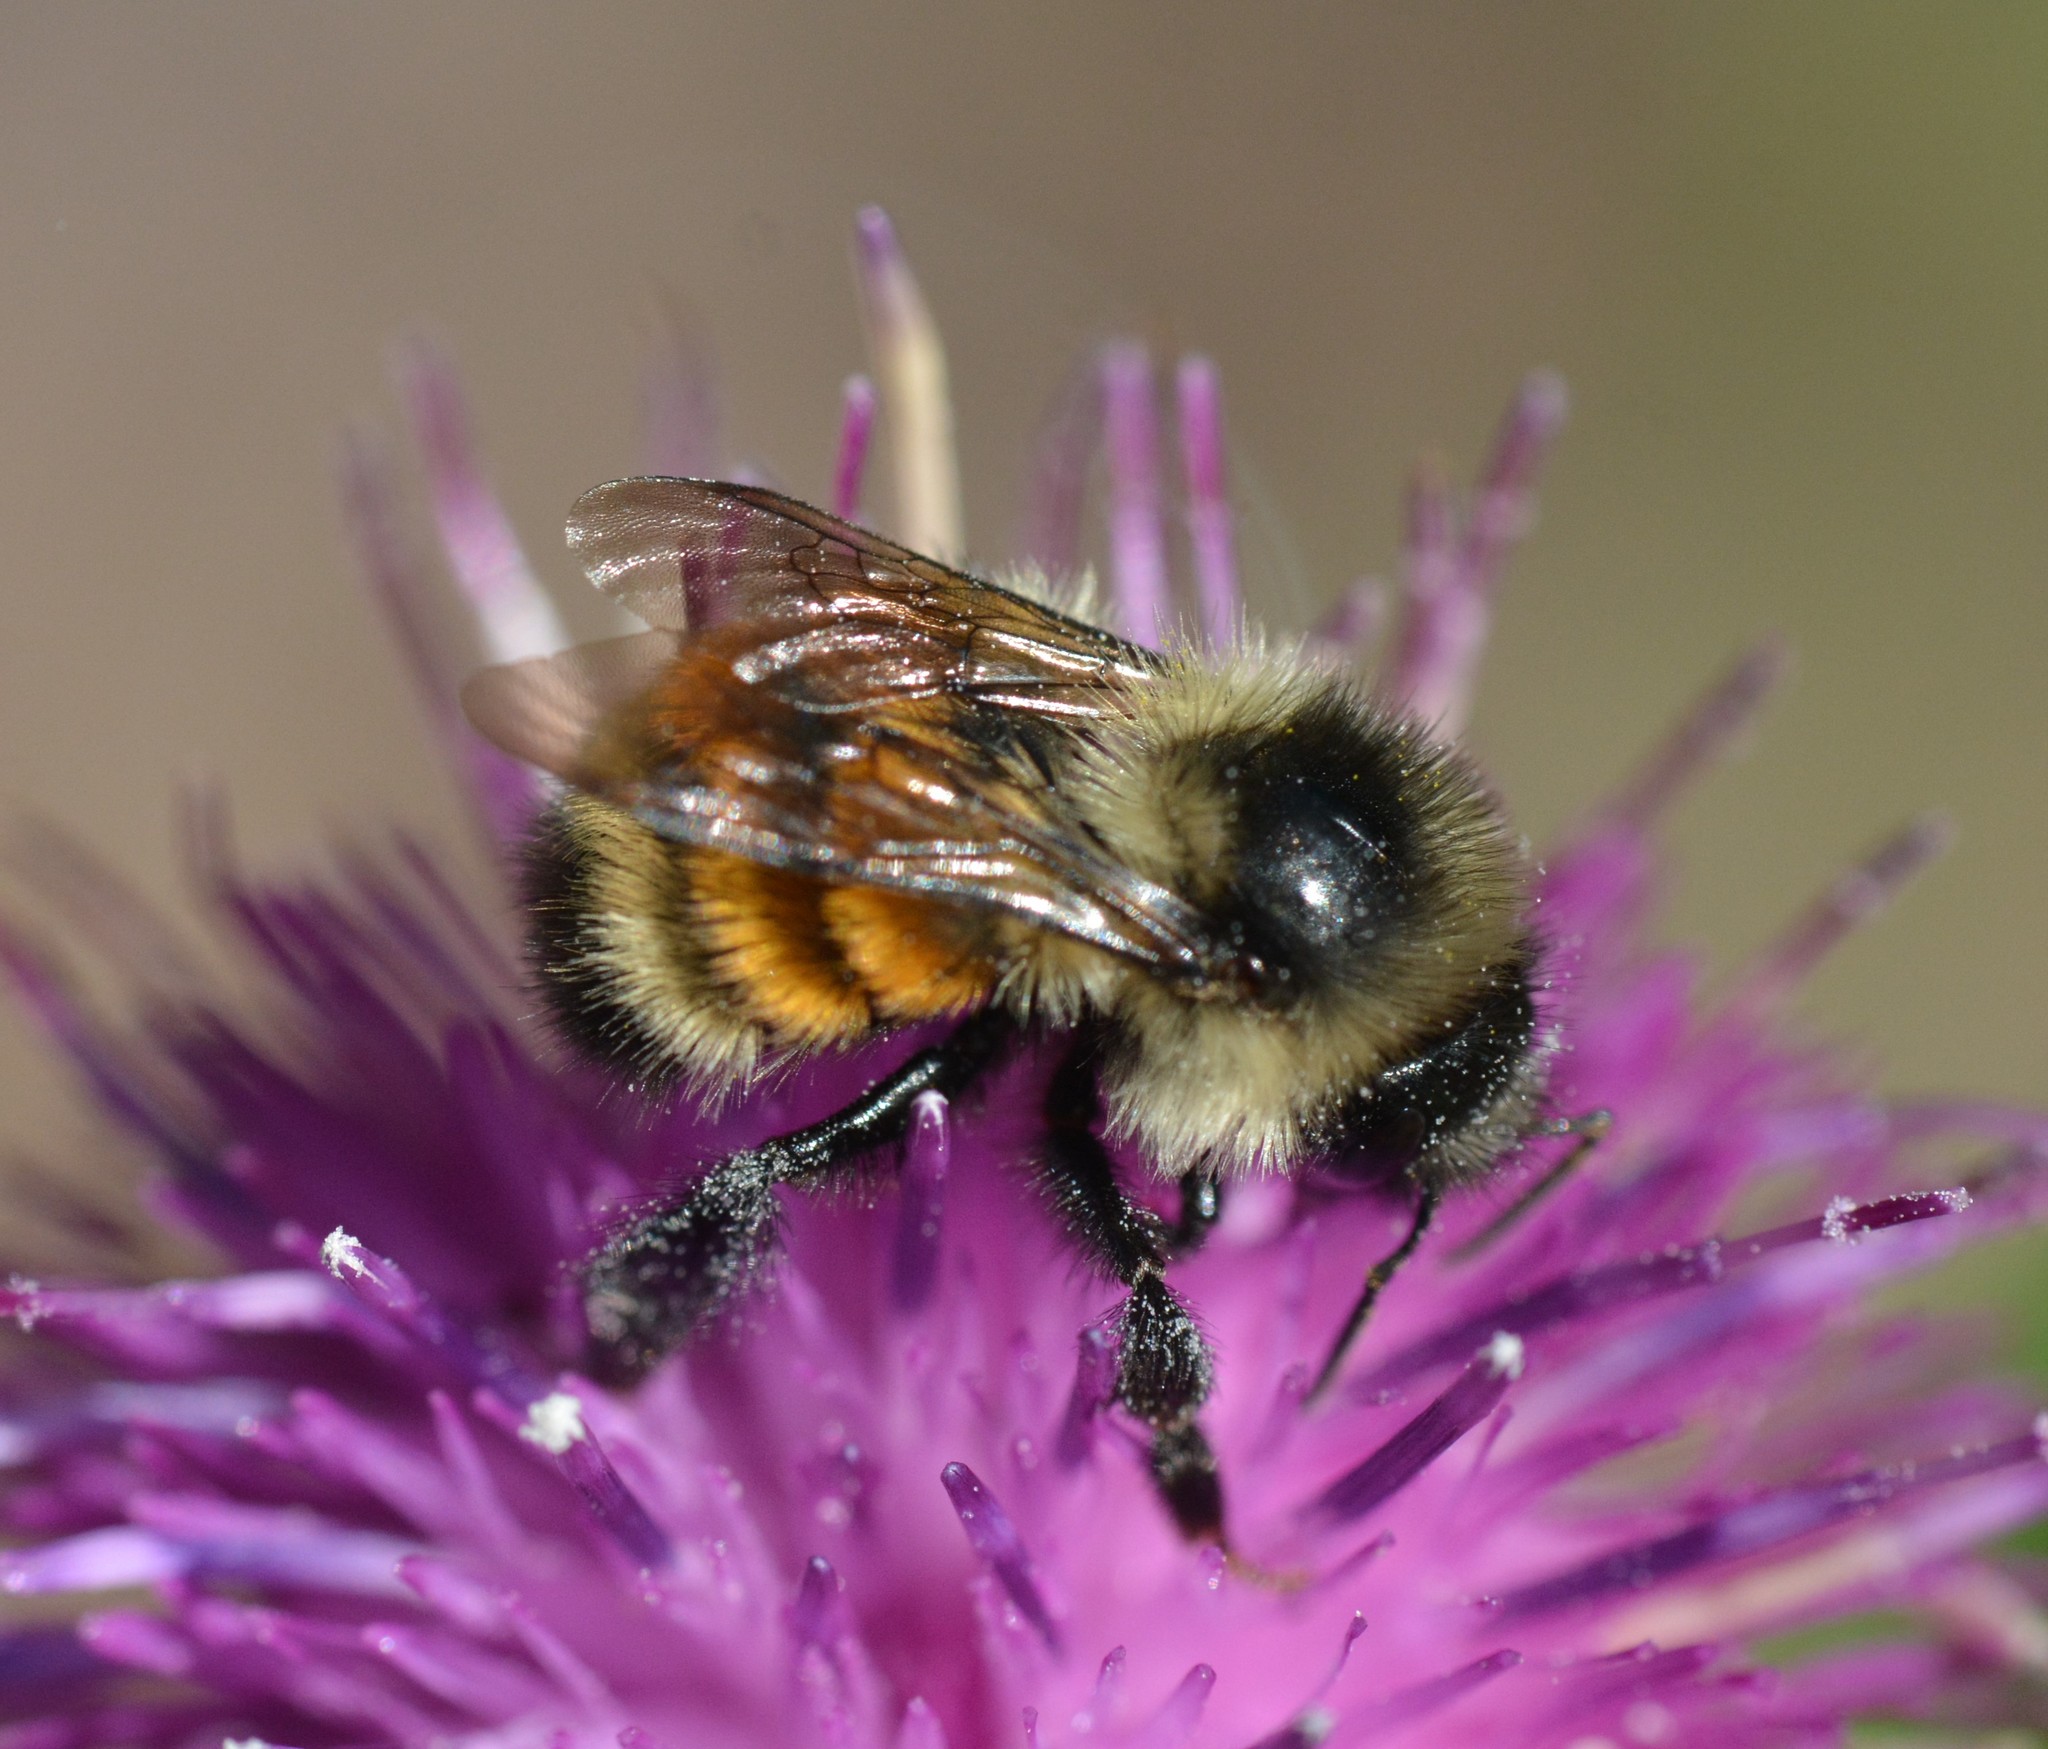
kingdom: Animalia
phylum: Arthropoda
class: Insecta
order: Hymenoptera
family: Apidae
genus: Bombus
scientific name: Bombus ternarius
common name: Tri-colored bumble bee
